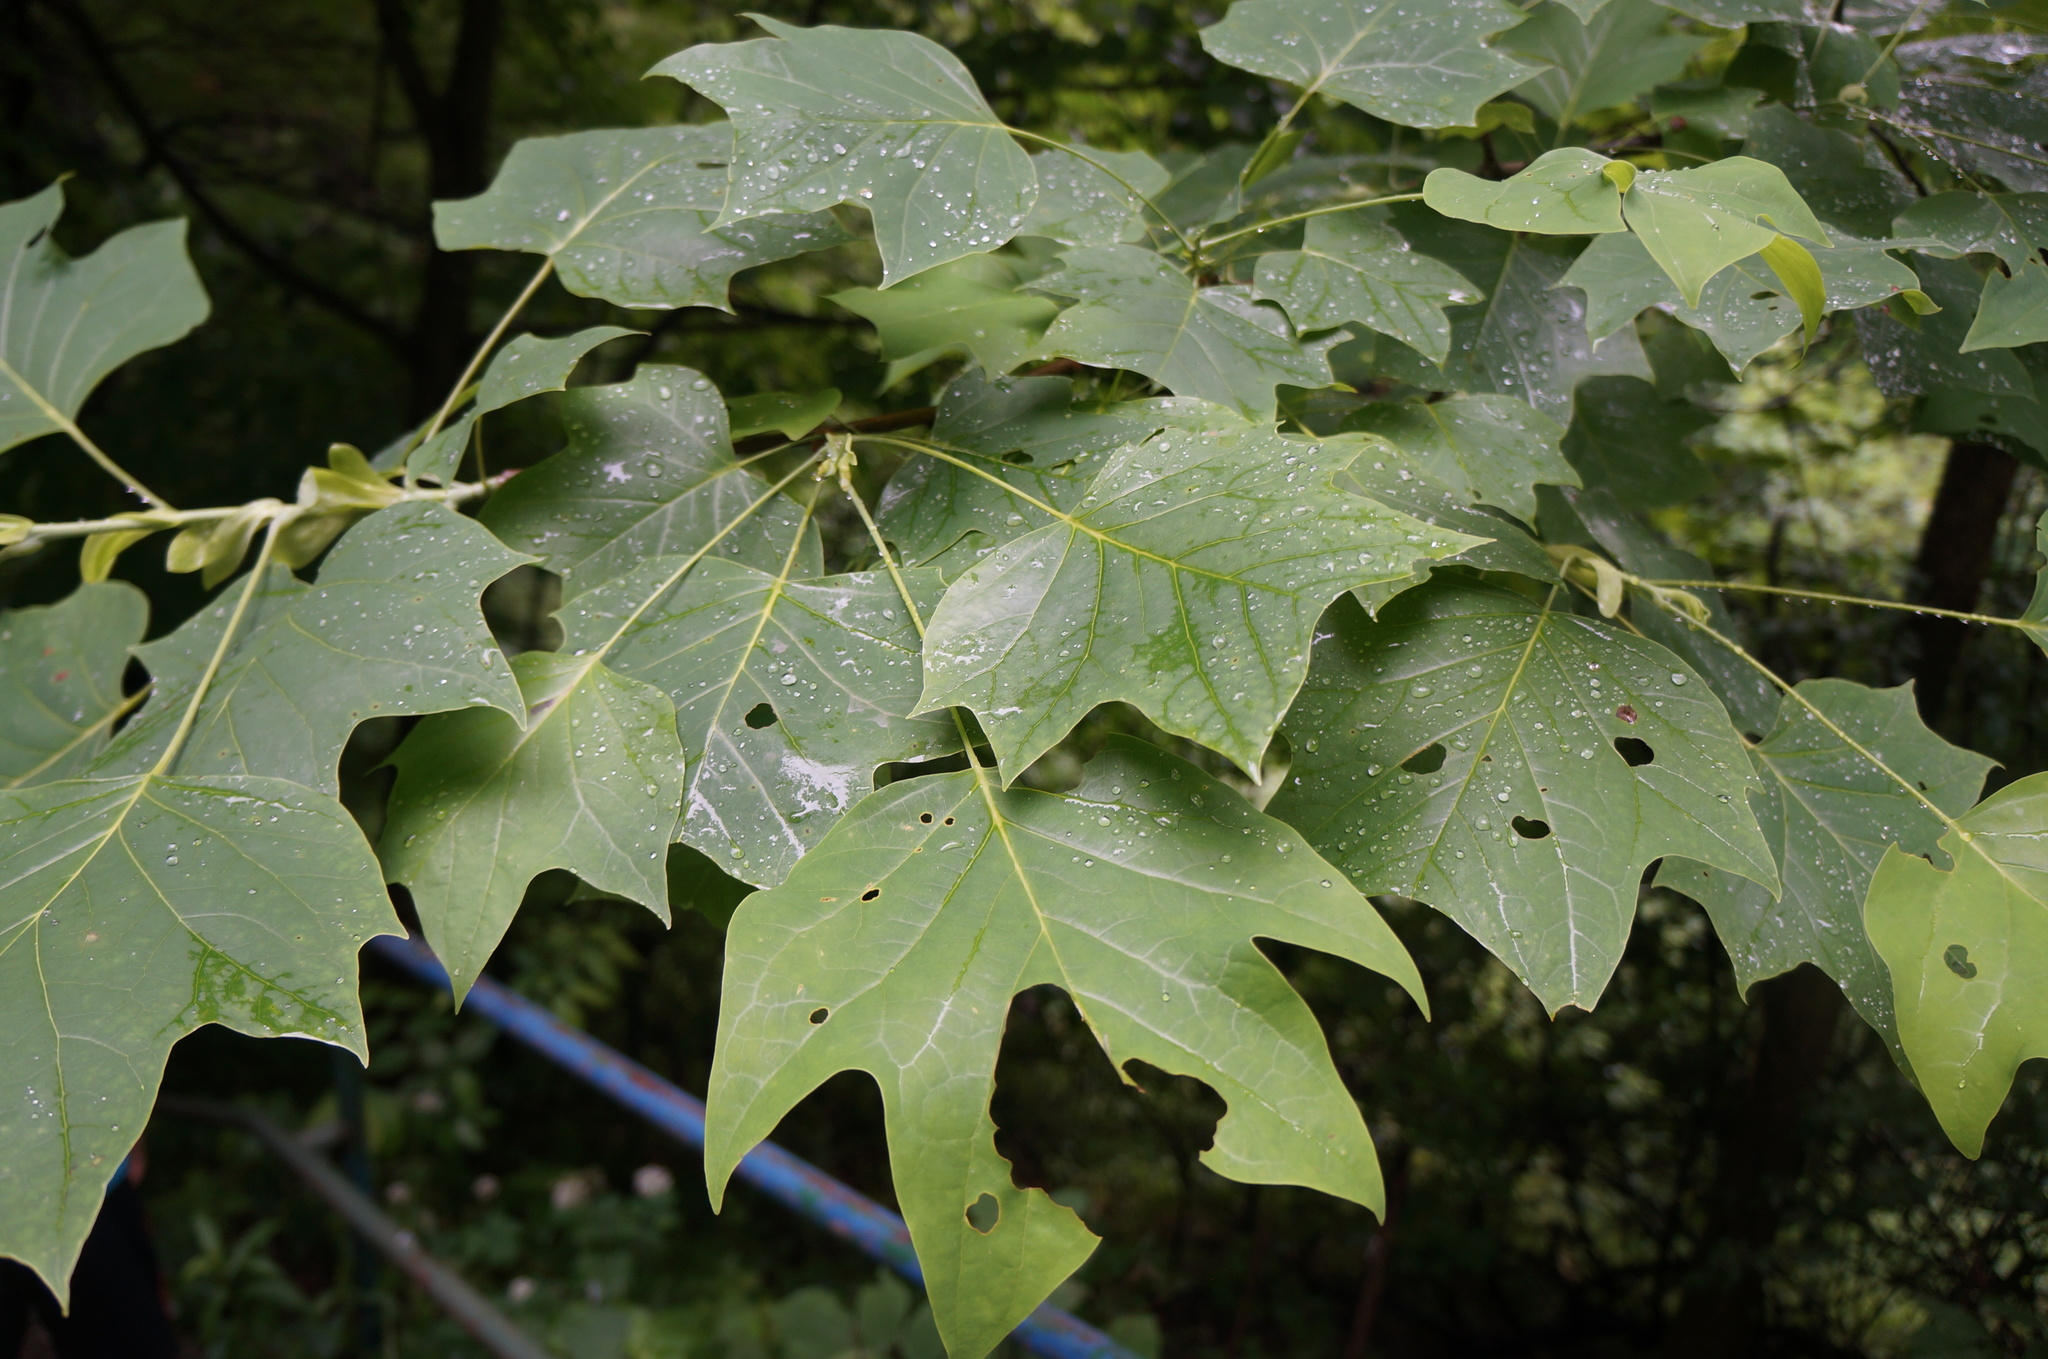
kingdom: Plantae
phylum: Tracheophyta
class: Magnoliopsida
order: Magnoliales
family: Magnoliaceae
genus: Liriodendron
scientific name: Liriodendron tulipifera
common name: Tulip tree
